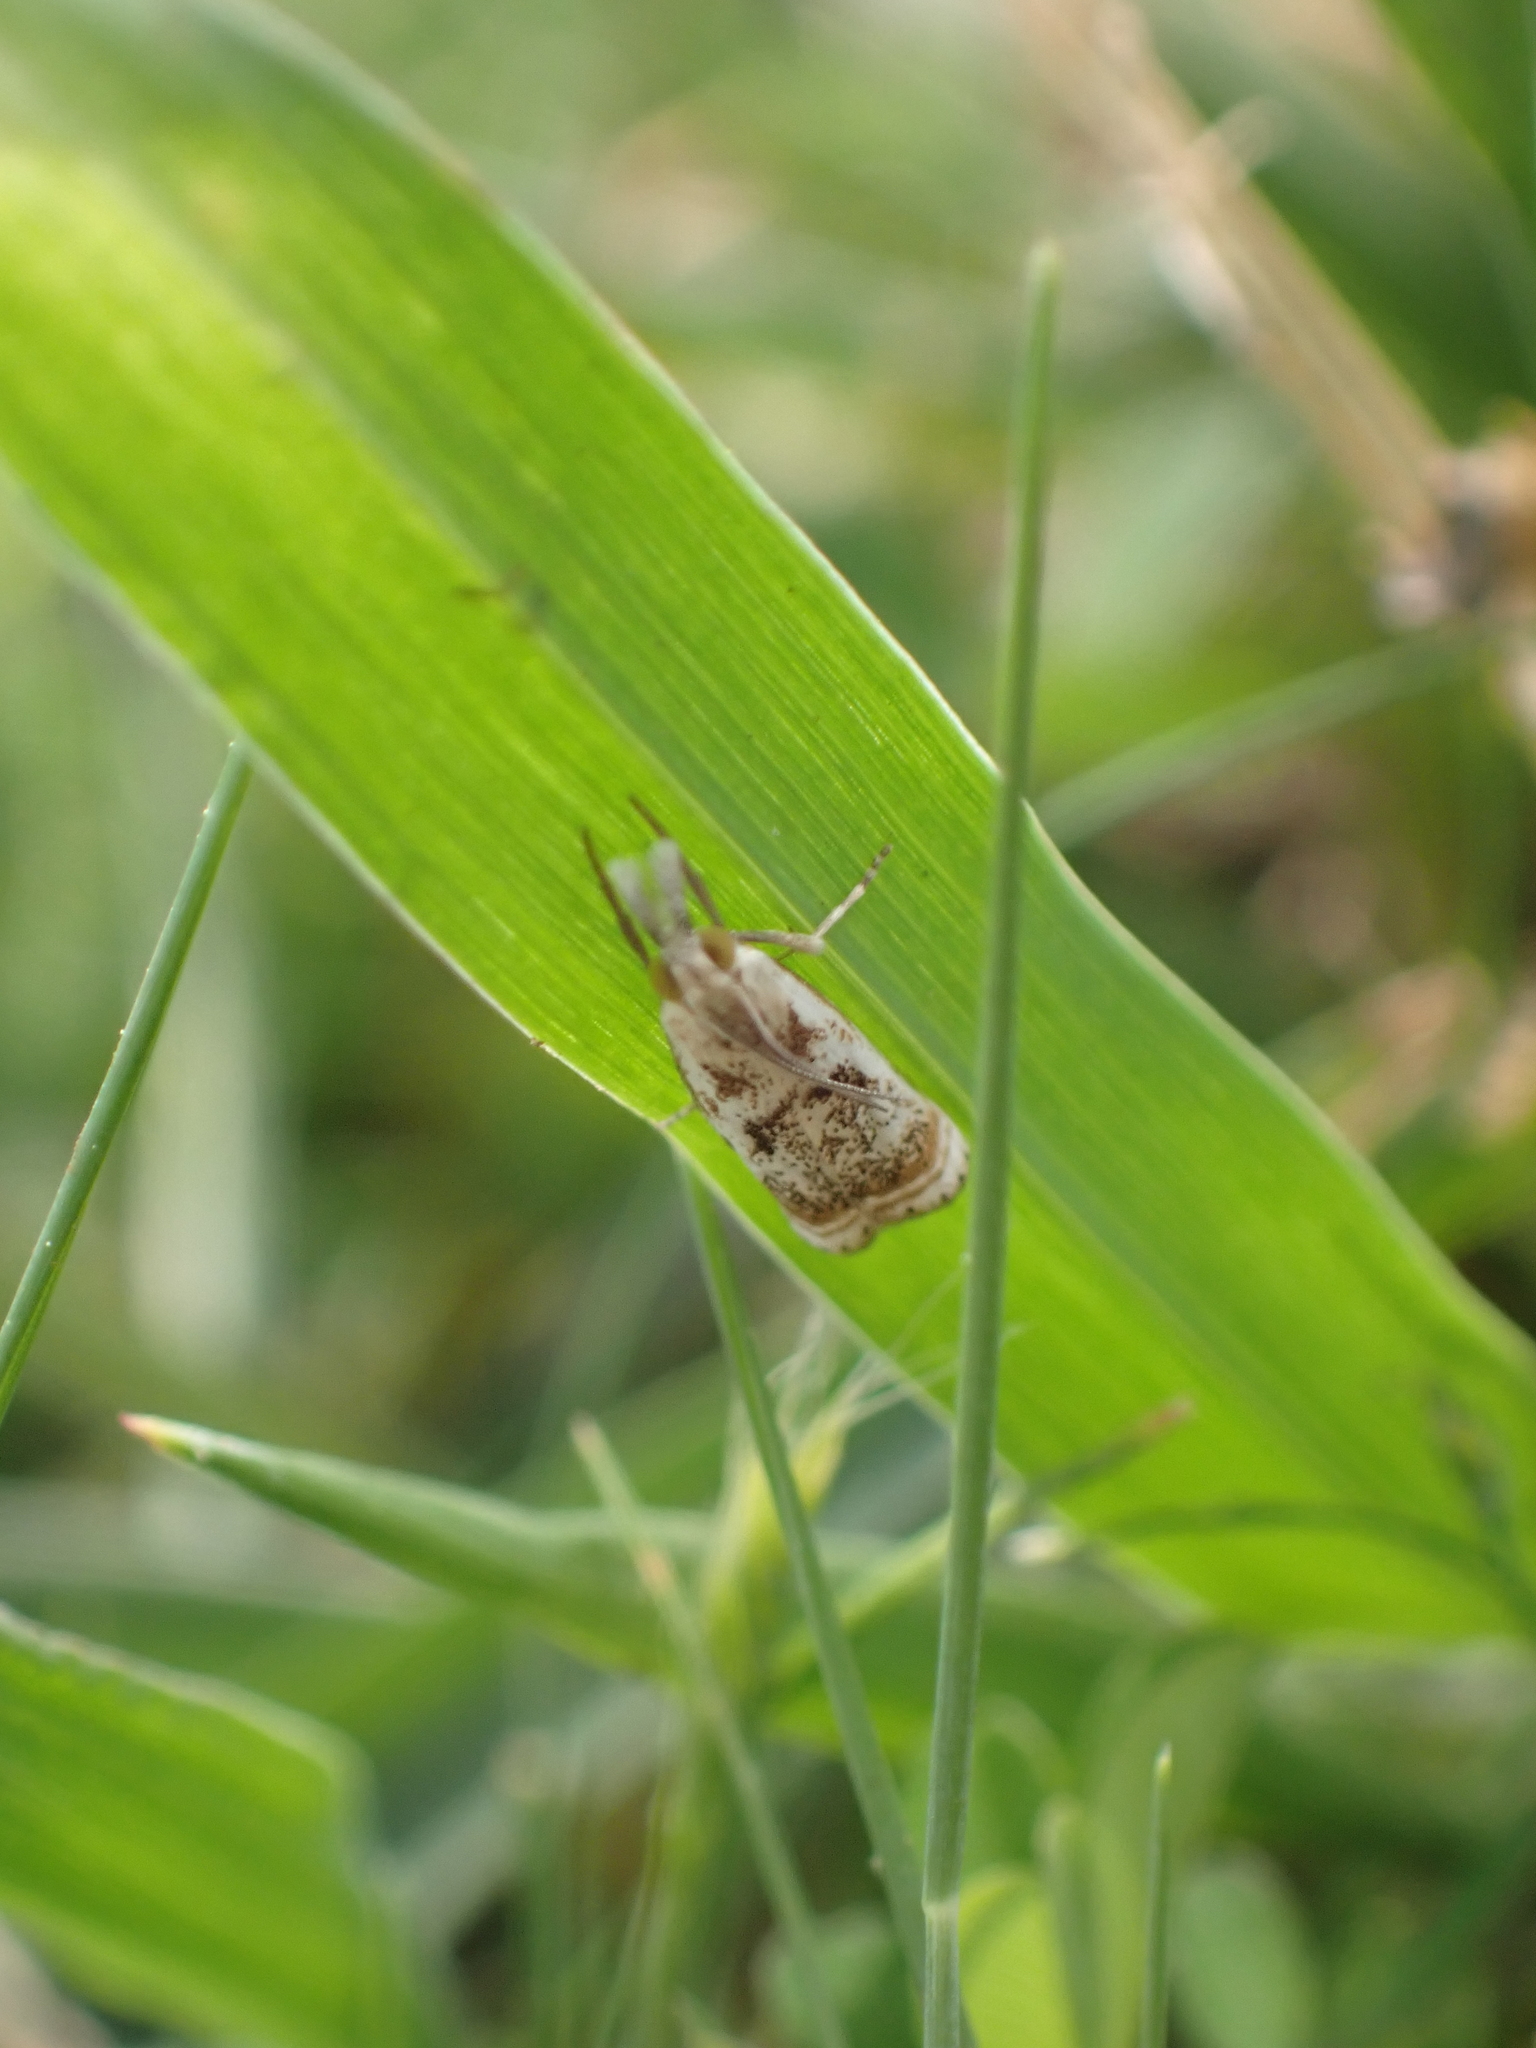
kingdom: Animalia
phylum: Arthropoda
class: Insecta
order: Lepidoptera
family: Crambidae
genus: Microcrambus
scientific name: Microcrambus elegans
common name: Elegant grass-veneer
